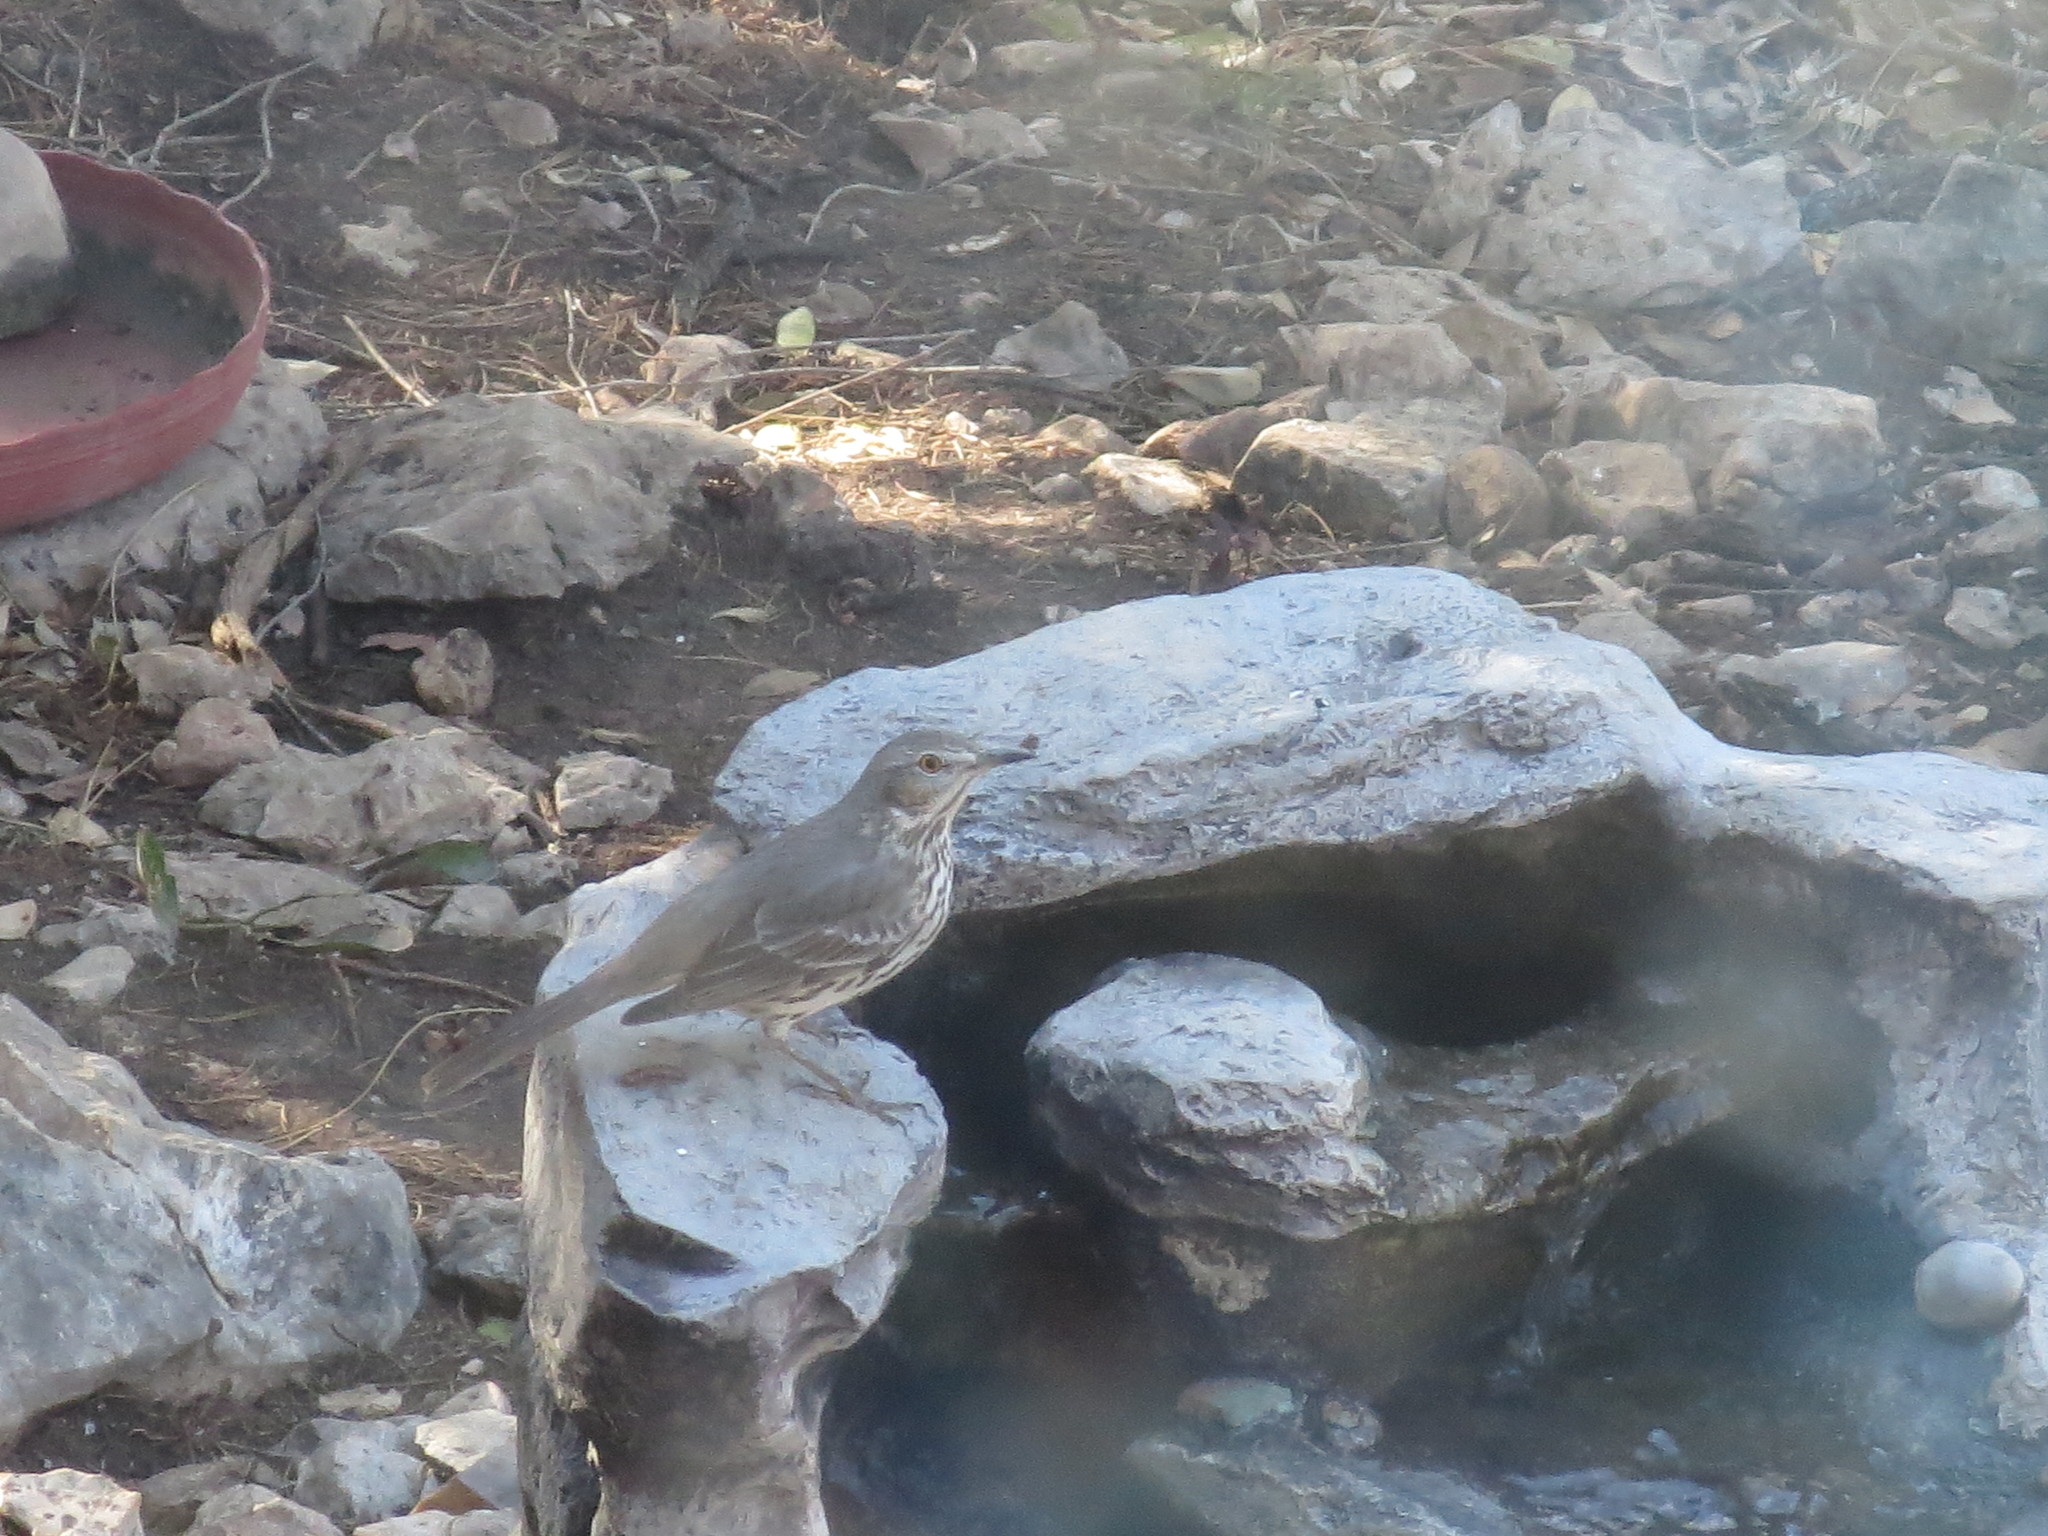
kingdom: Animalia
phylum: Chordata
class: Aves
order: Passeriformes
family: Mimidae
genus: Oreoscoptes
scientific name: Oreoscoptes montanus
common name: Sage thrasher
